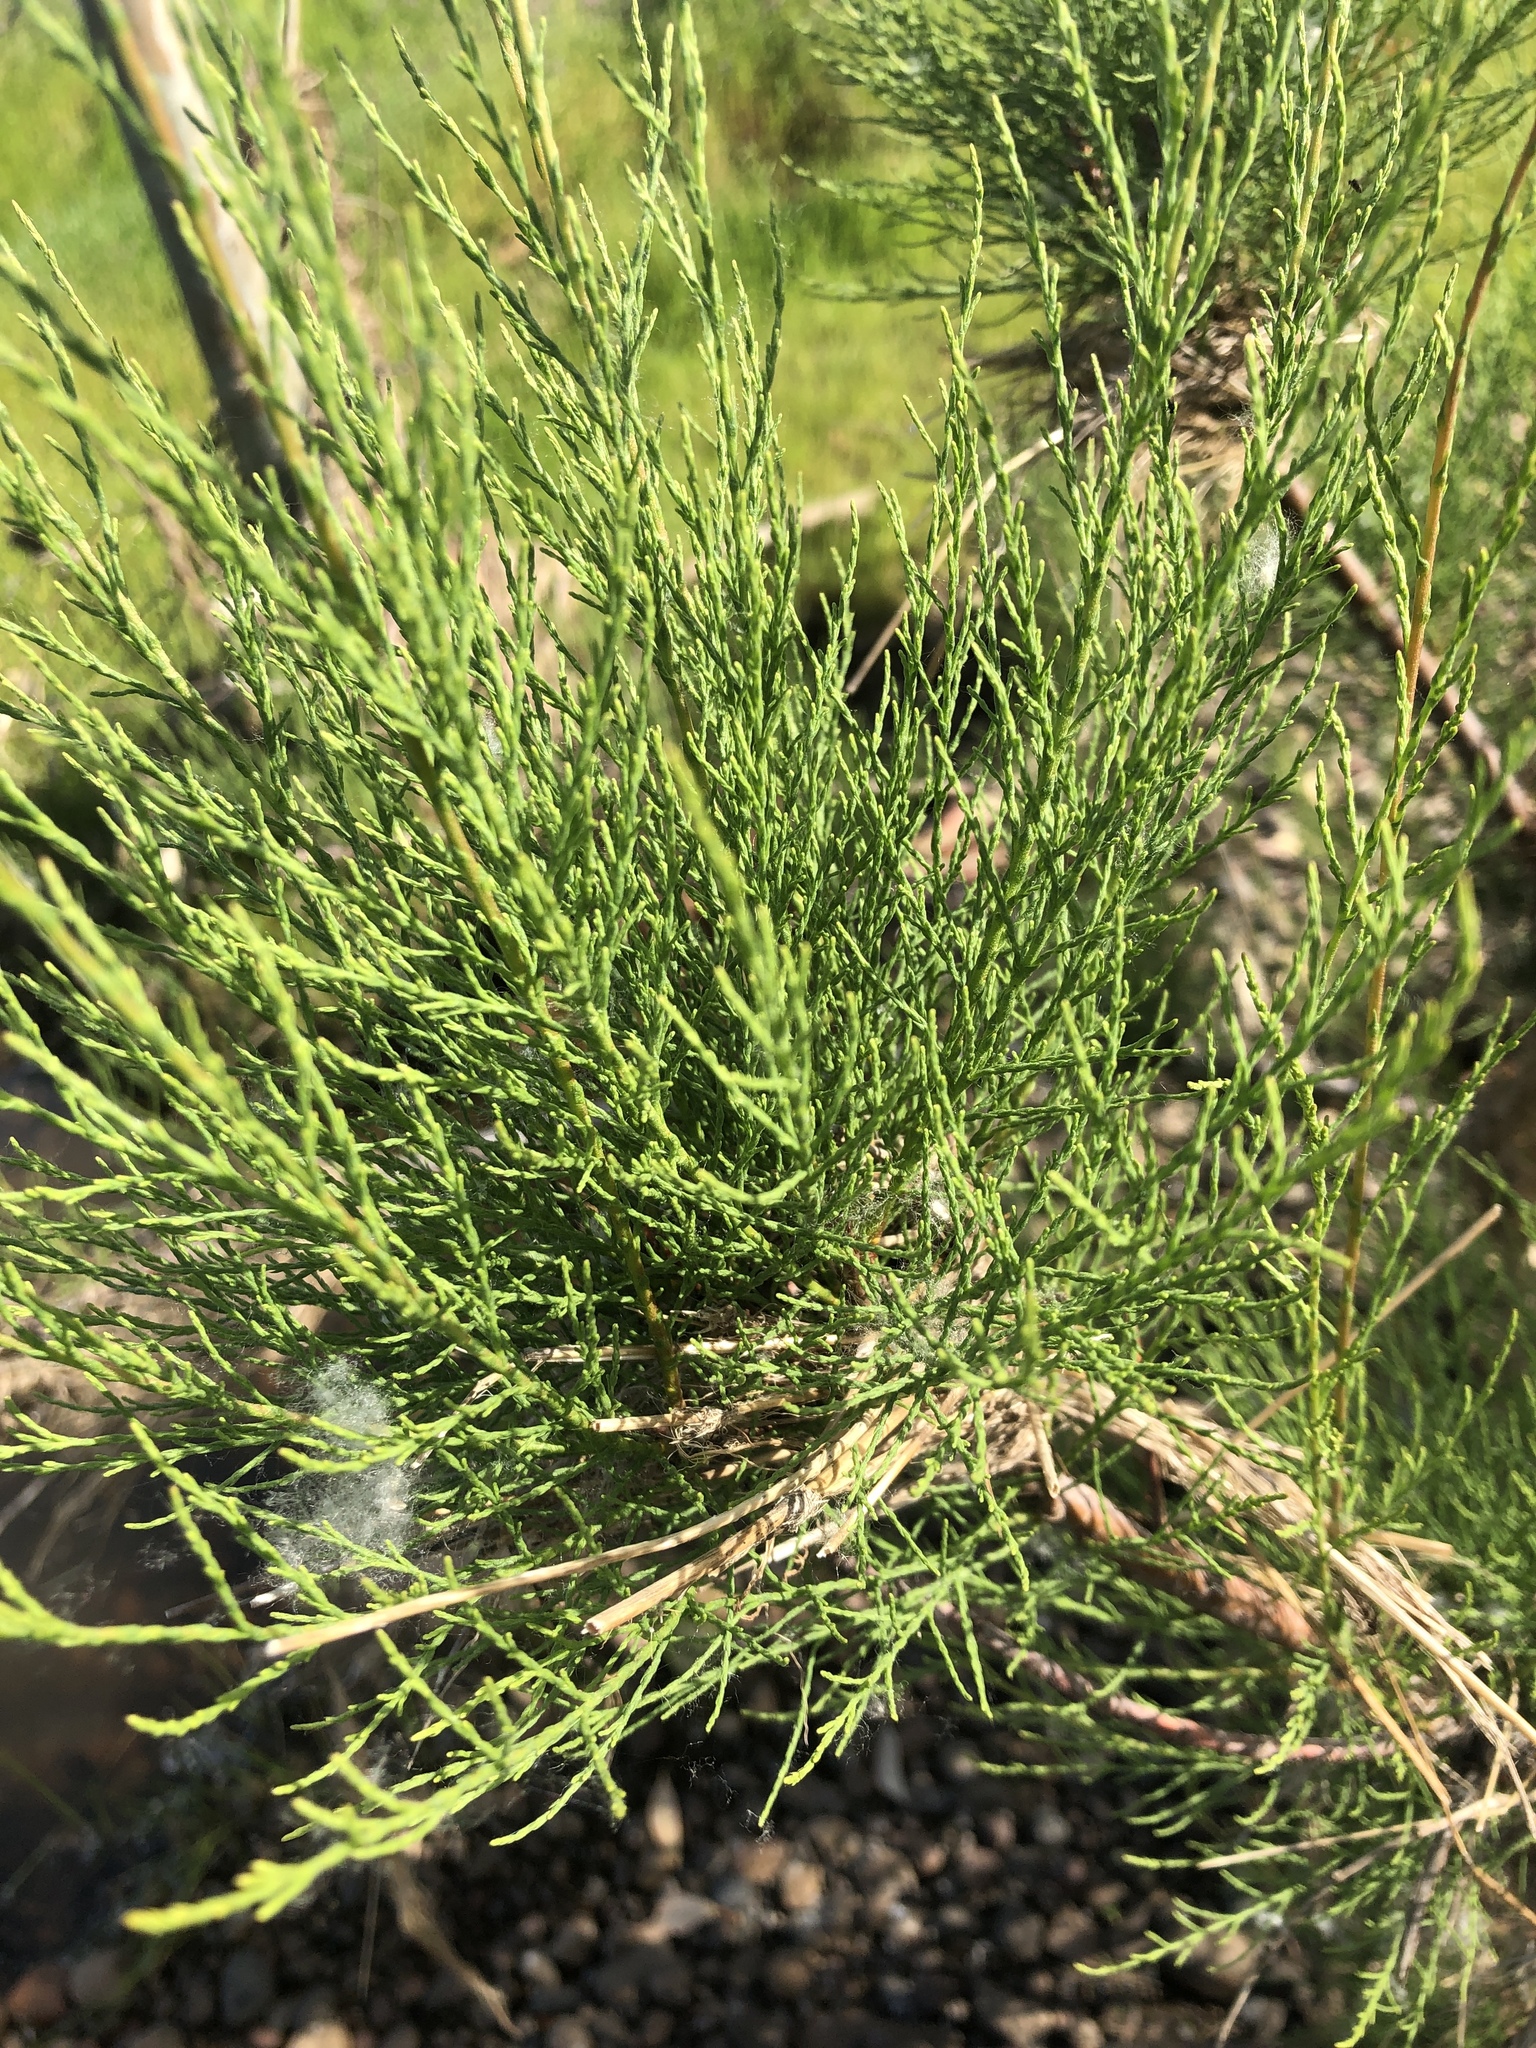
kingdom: Plantae
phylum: Tracheophyta
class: Magnoliopsida
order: Caryophyllales
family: Tamaricaceae
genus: Tamarix
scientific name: Tamarix
